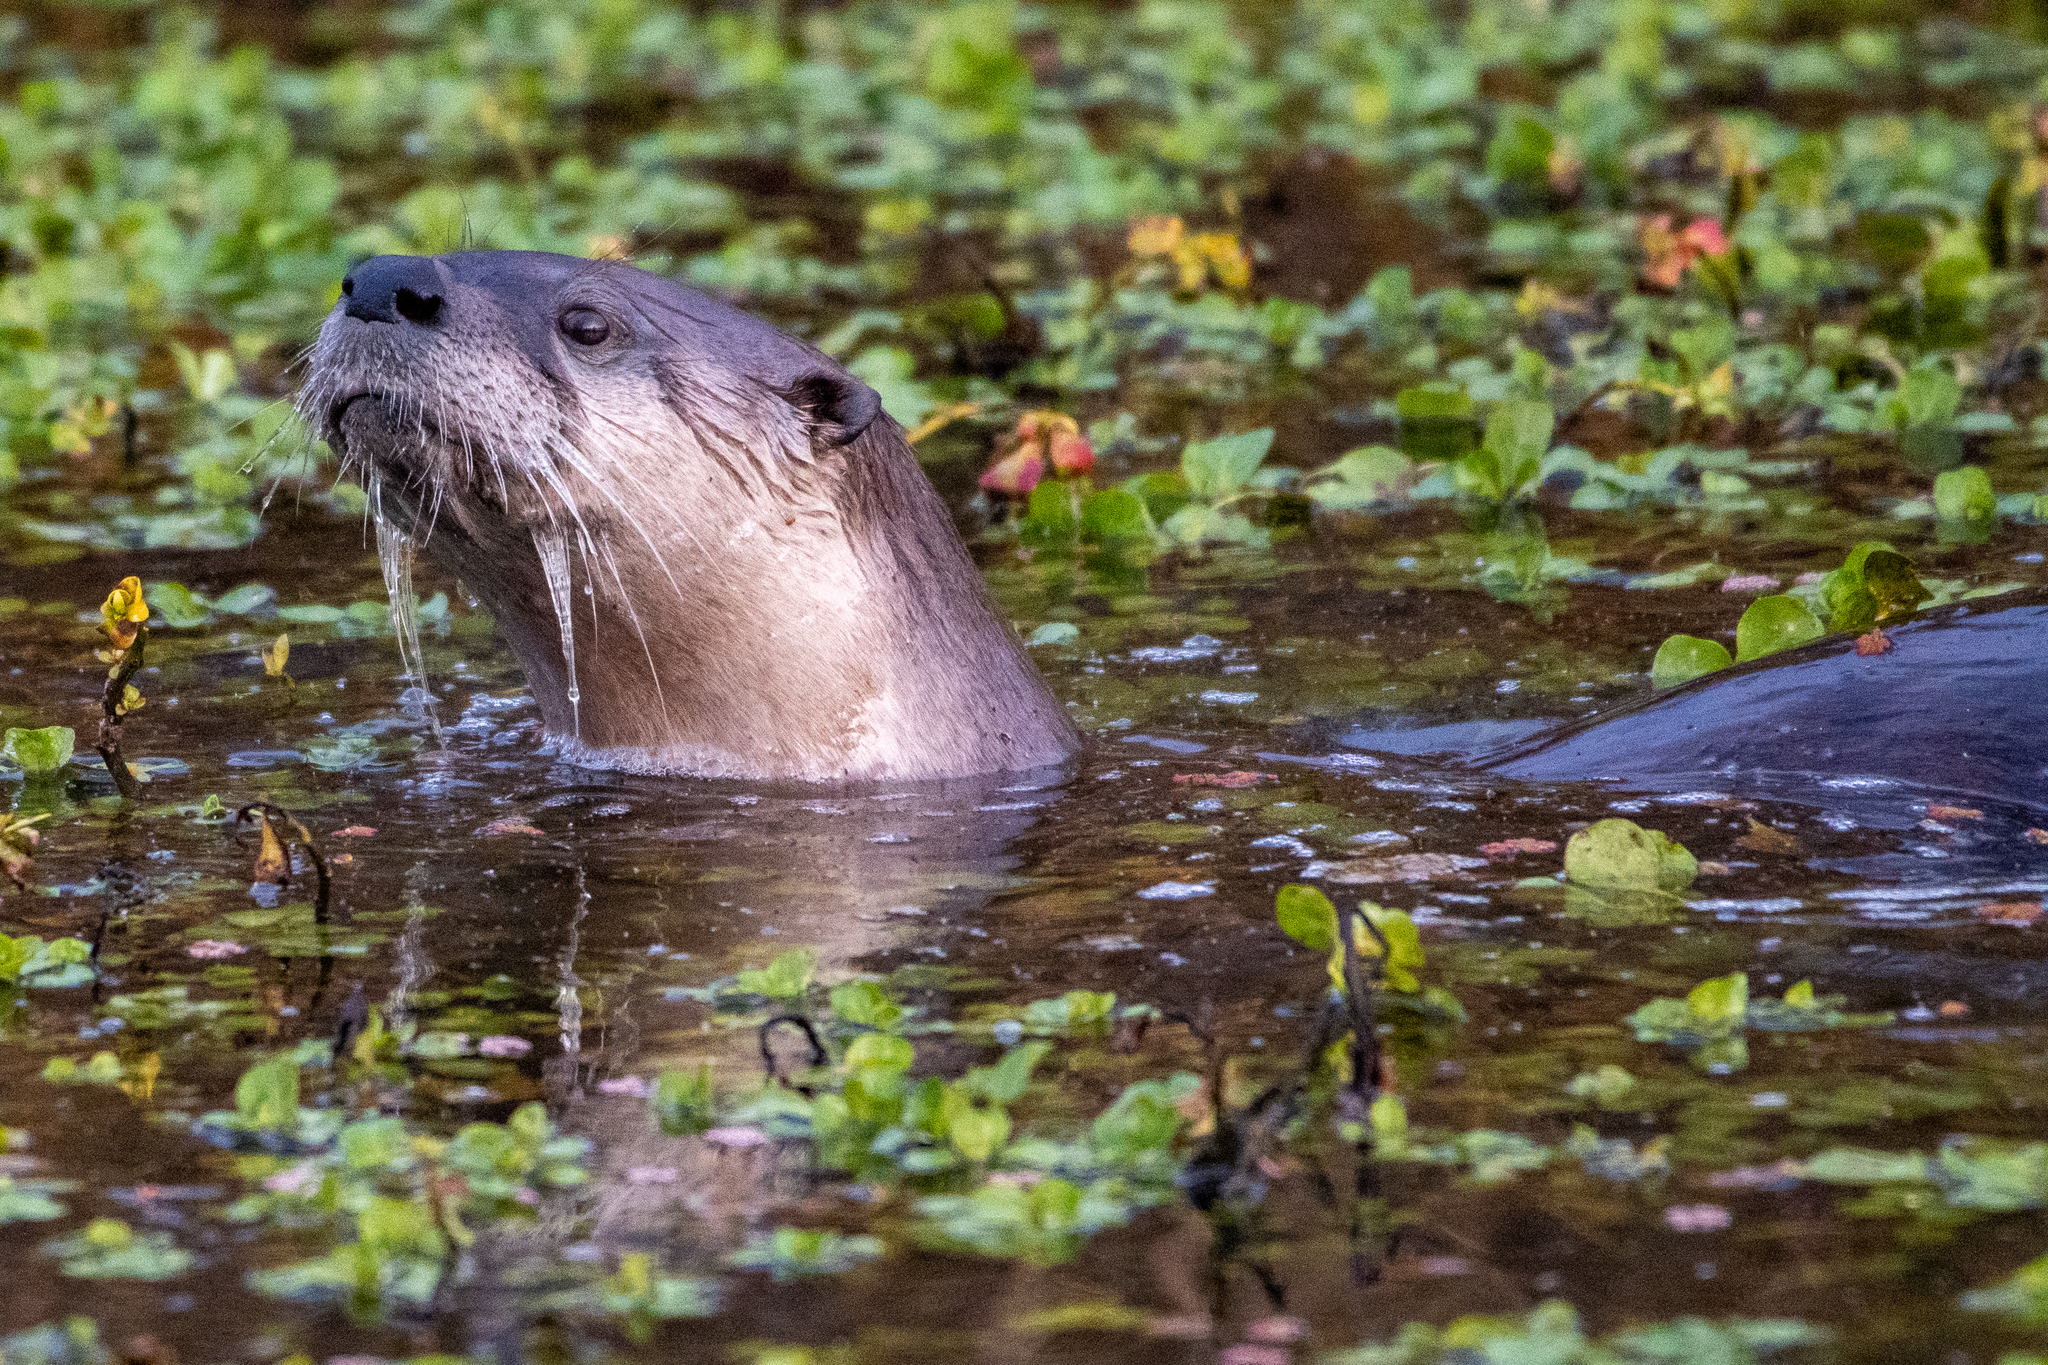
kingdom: Animalia
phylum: Chordata
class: Mammalia
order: Carnivora
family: Mustelidae
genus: Lontra
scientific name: Lontra canadensis
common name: North american river otter
